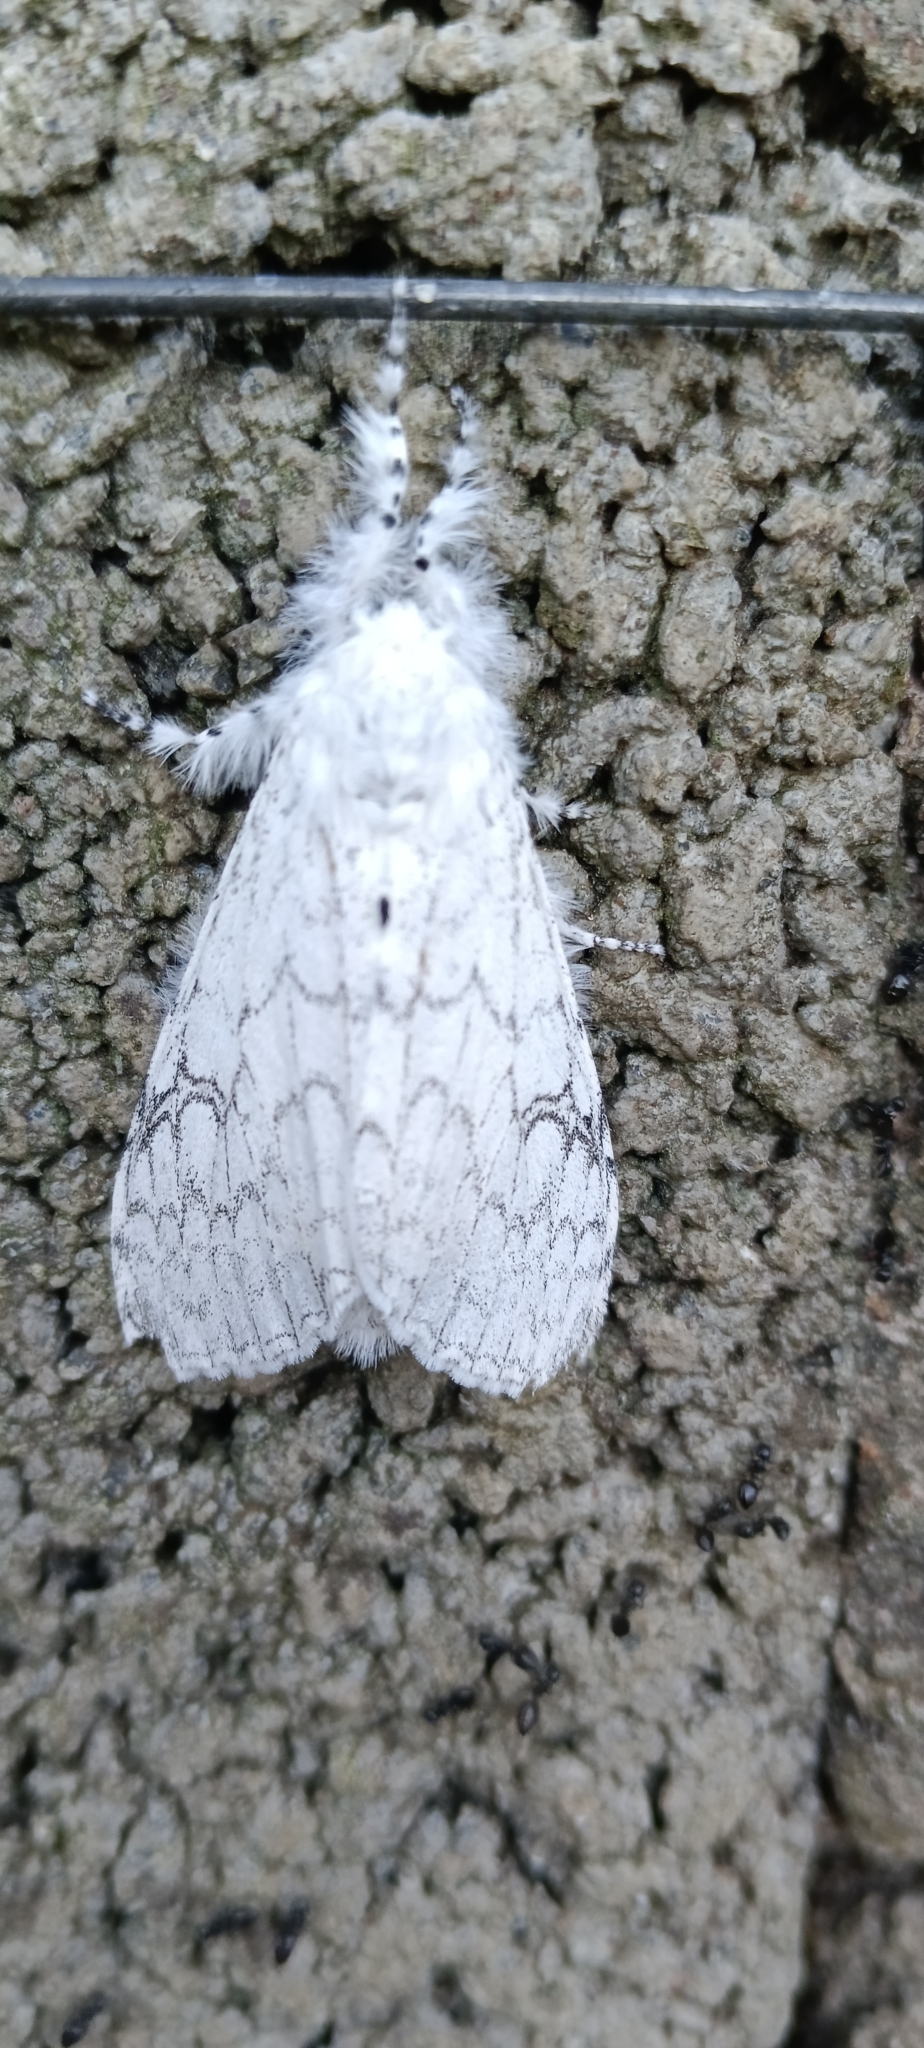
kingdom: Animalia
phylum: Arthropoda
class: Insecta
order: Lepidoptera
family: Erebidae
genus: Dasychira
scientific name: Dasychira georgiana
